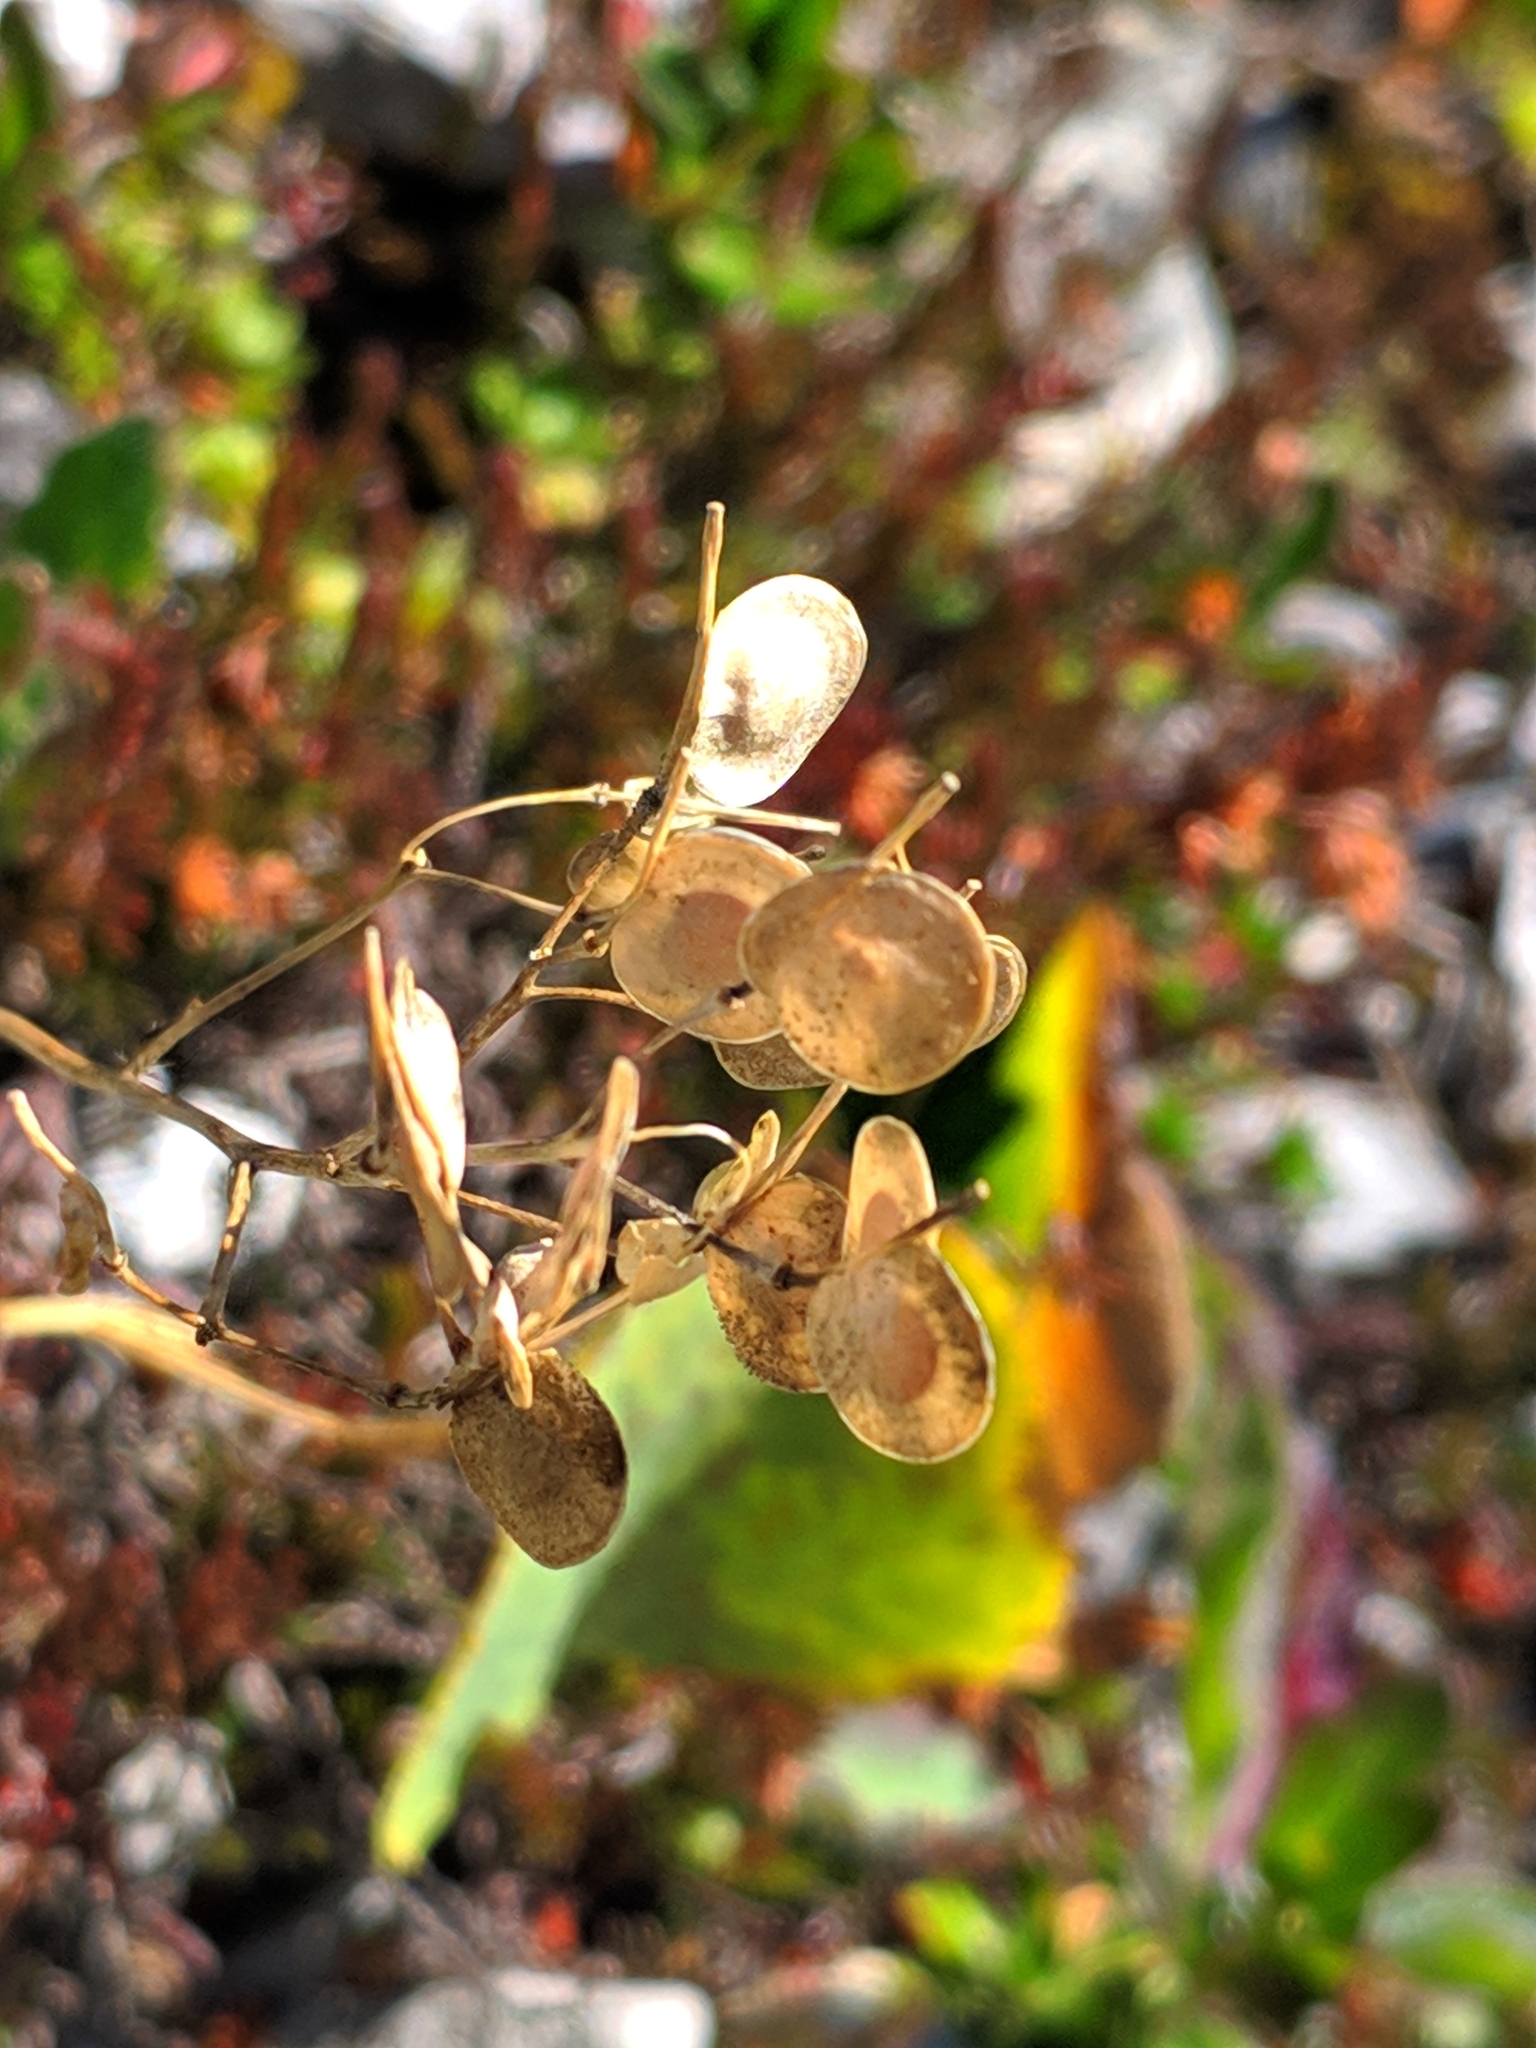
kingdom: Plantae
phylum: Tracheophyta
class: Magnoliopsida
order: Brassicales
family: Brassicaceae
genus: Biscutella
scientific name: Biscutella laevigata
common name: Buckler mustard
